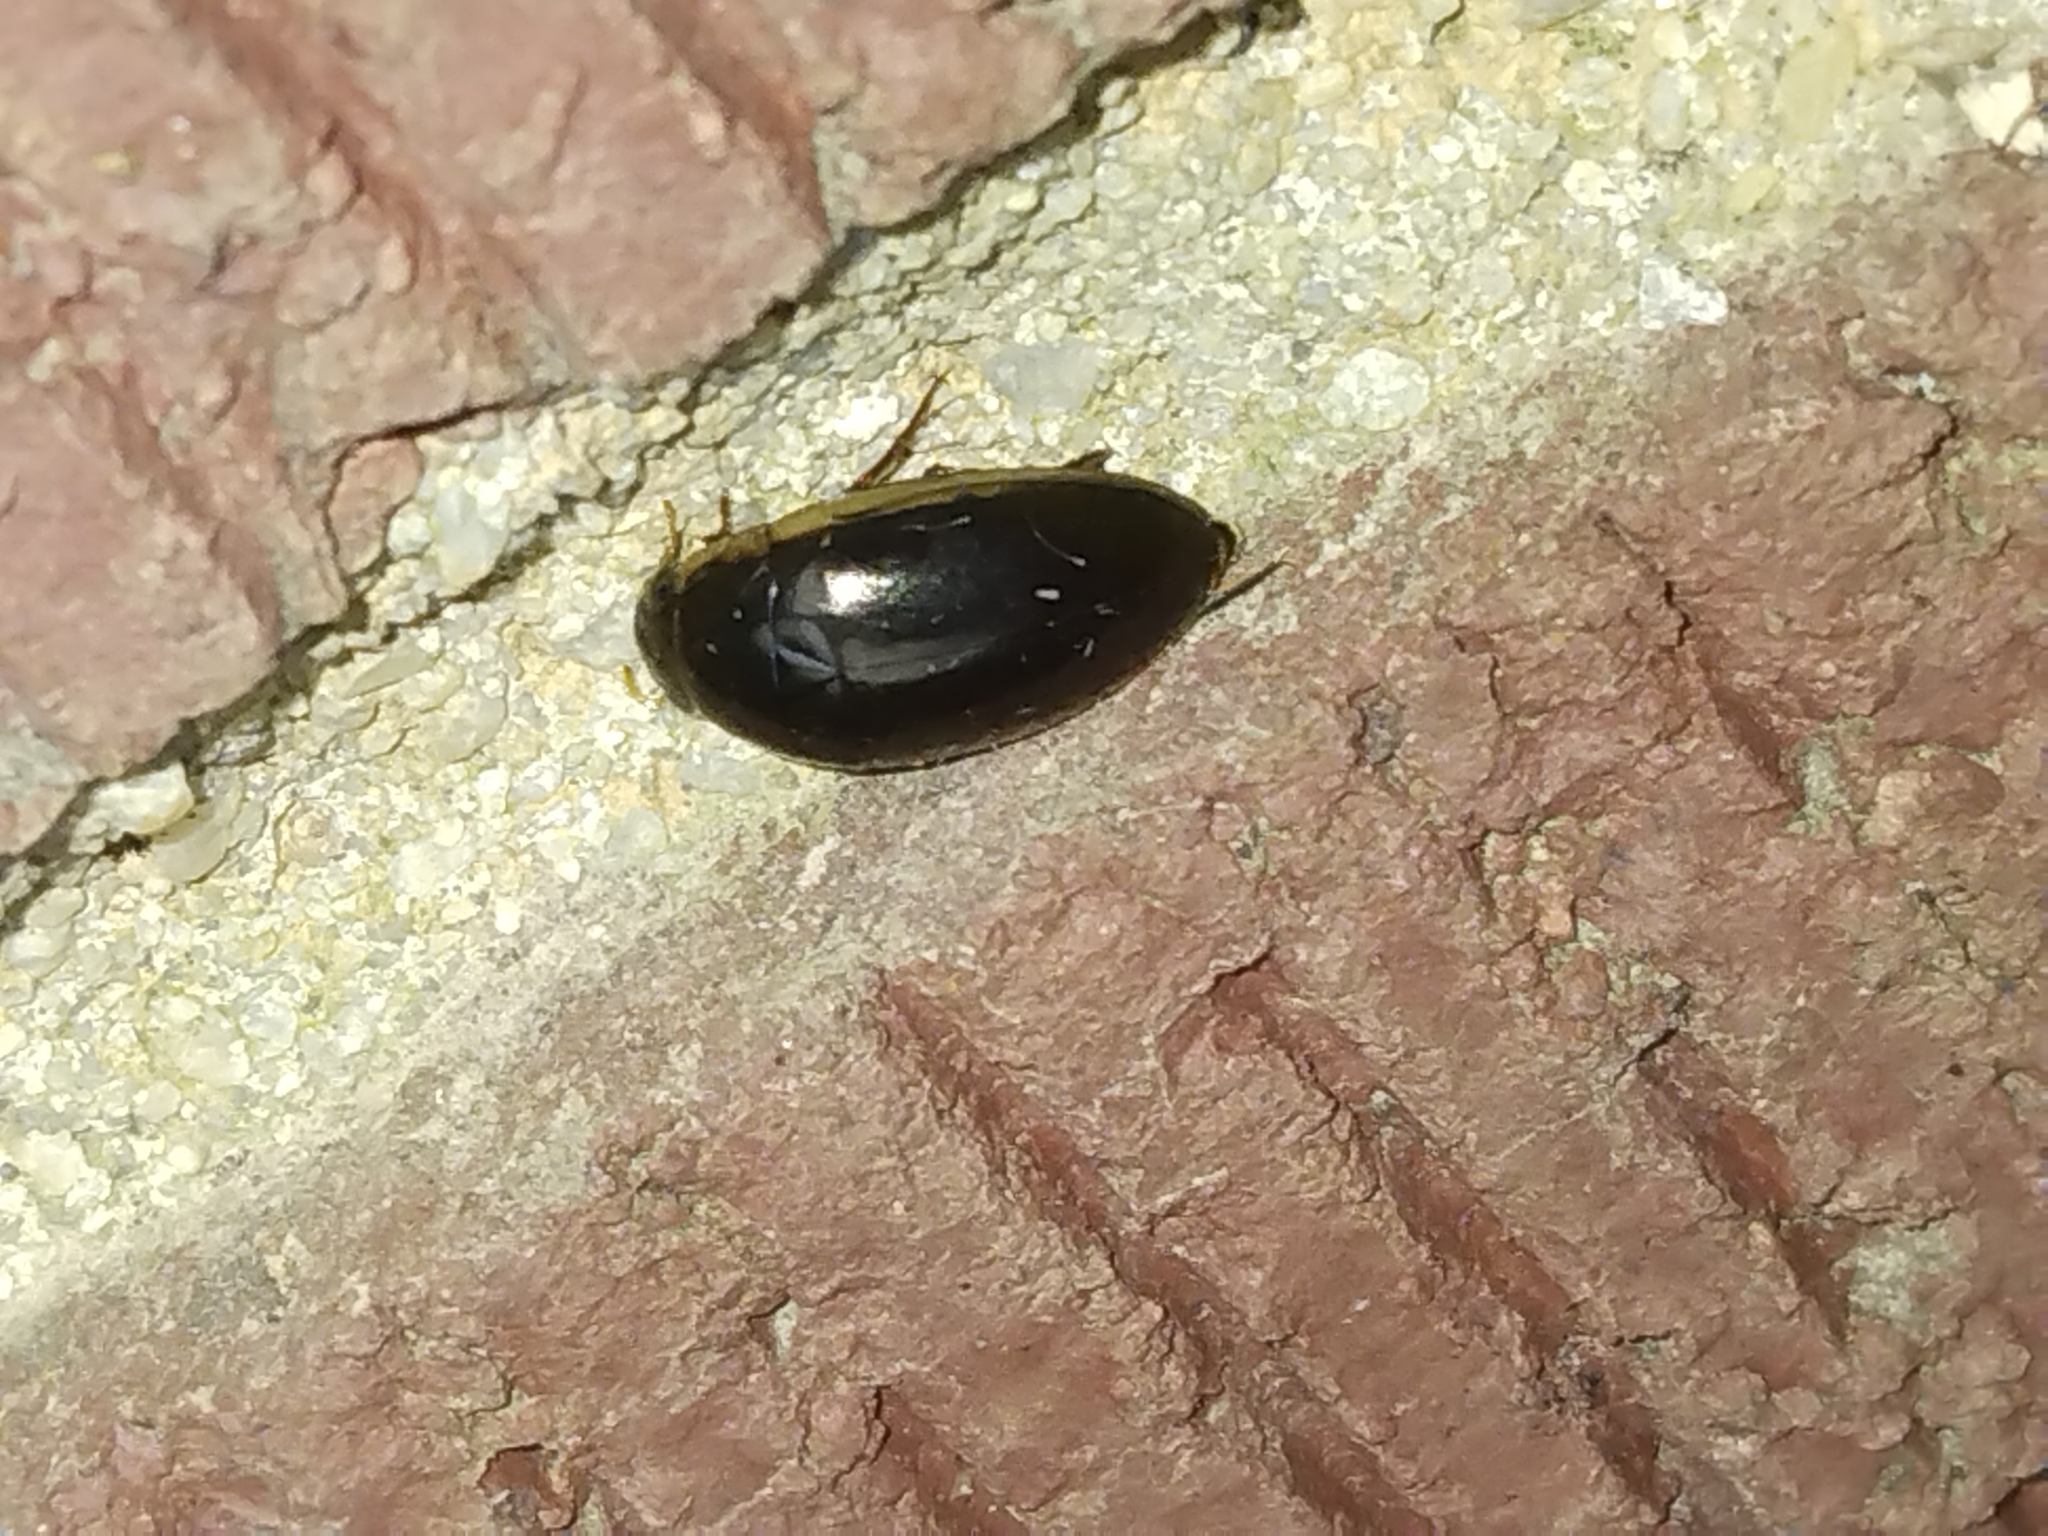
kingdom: Animalia
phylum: Arthropoda
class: Insecta
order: Coleoptera
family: Hydrophilidae
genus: Tropisternus
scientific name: Tropisternus lateralis
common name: Lateral-banded water scavenger beetle
